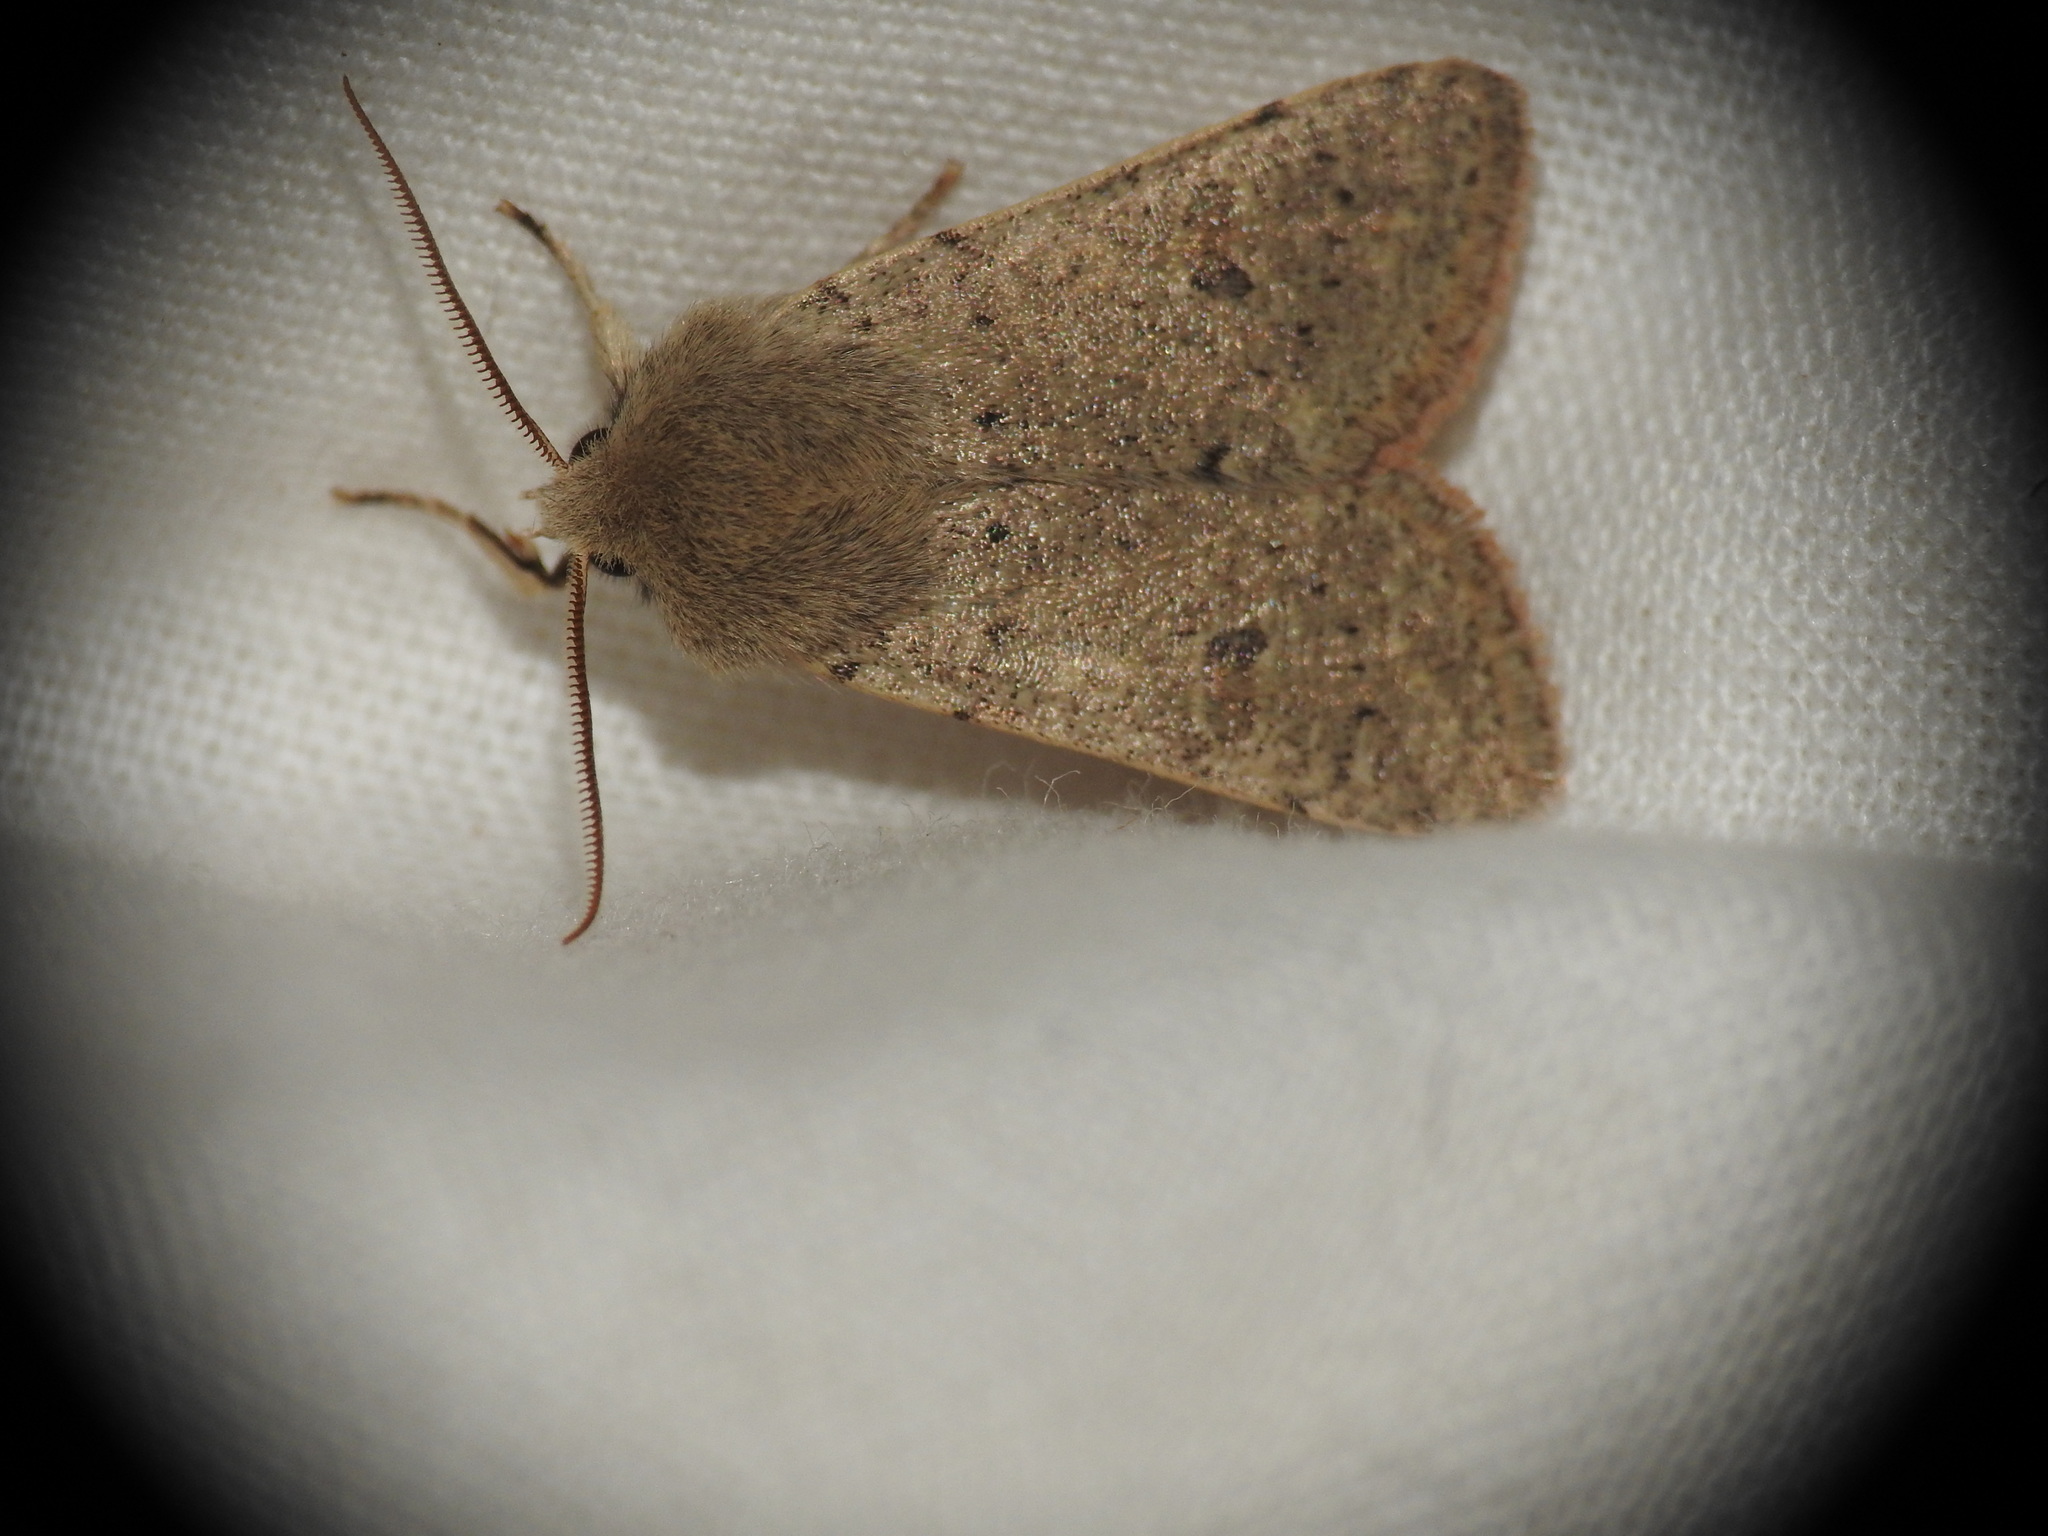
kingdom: Animalia
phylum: Arthropoda
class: Insecta
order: Lepidoptera
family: Noctuidae
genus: Orthosia
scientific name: Orthosia cruda
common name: Small quaker
